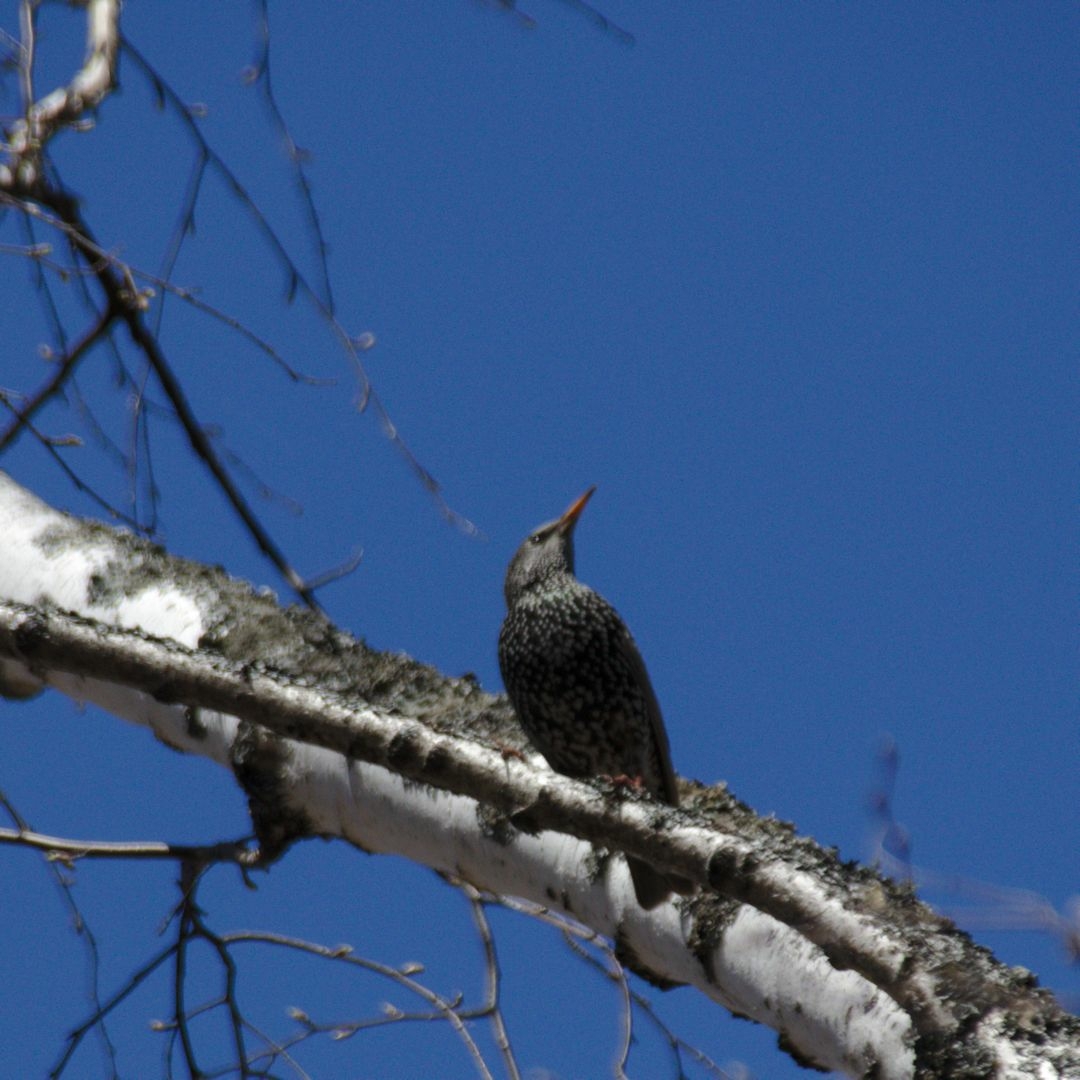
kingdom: Animalia
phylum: Chordata
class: Aves
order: Passeriformes
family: Sturnidae
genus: Sturnus
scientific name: Sturnus vulgaris
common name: Common starling
